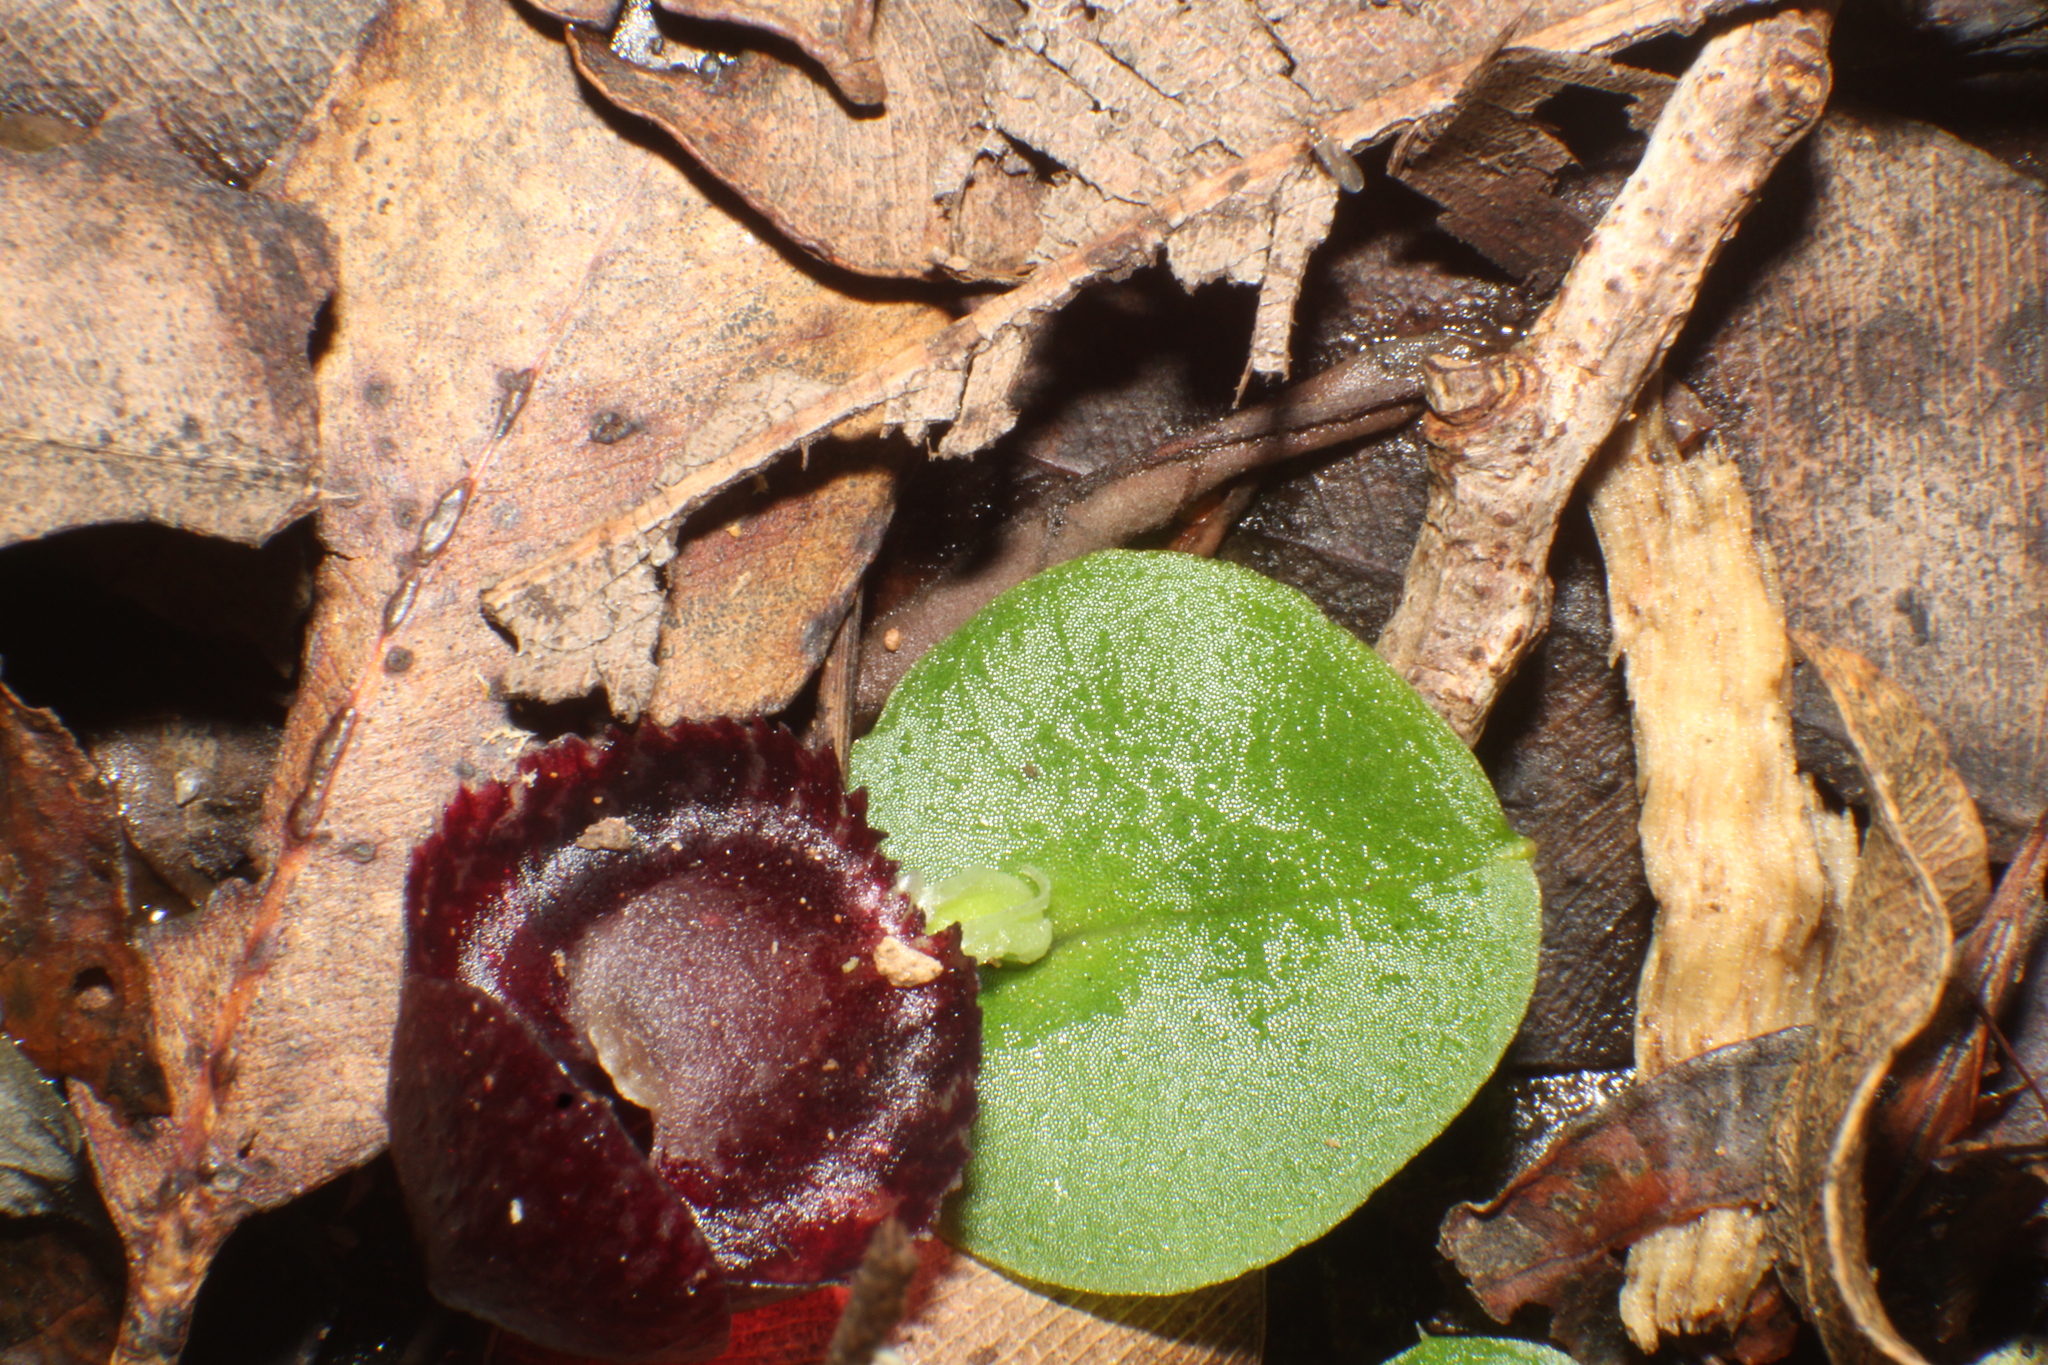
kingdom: Plantae
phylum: Tracheophyta
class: Liliopsida
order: Asparagales
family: Orchidaceae
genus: Corybas
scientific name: Corybas recurvus
